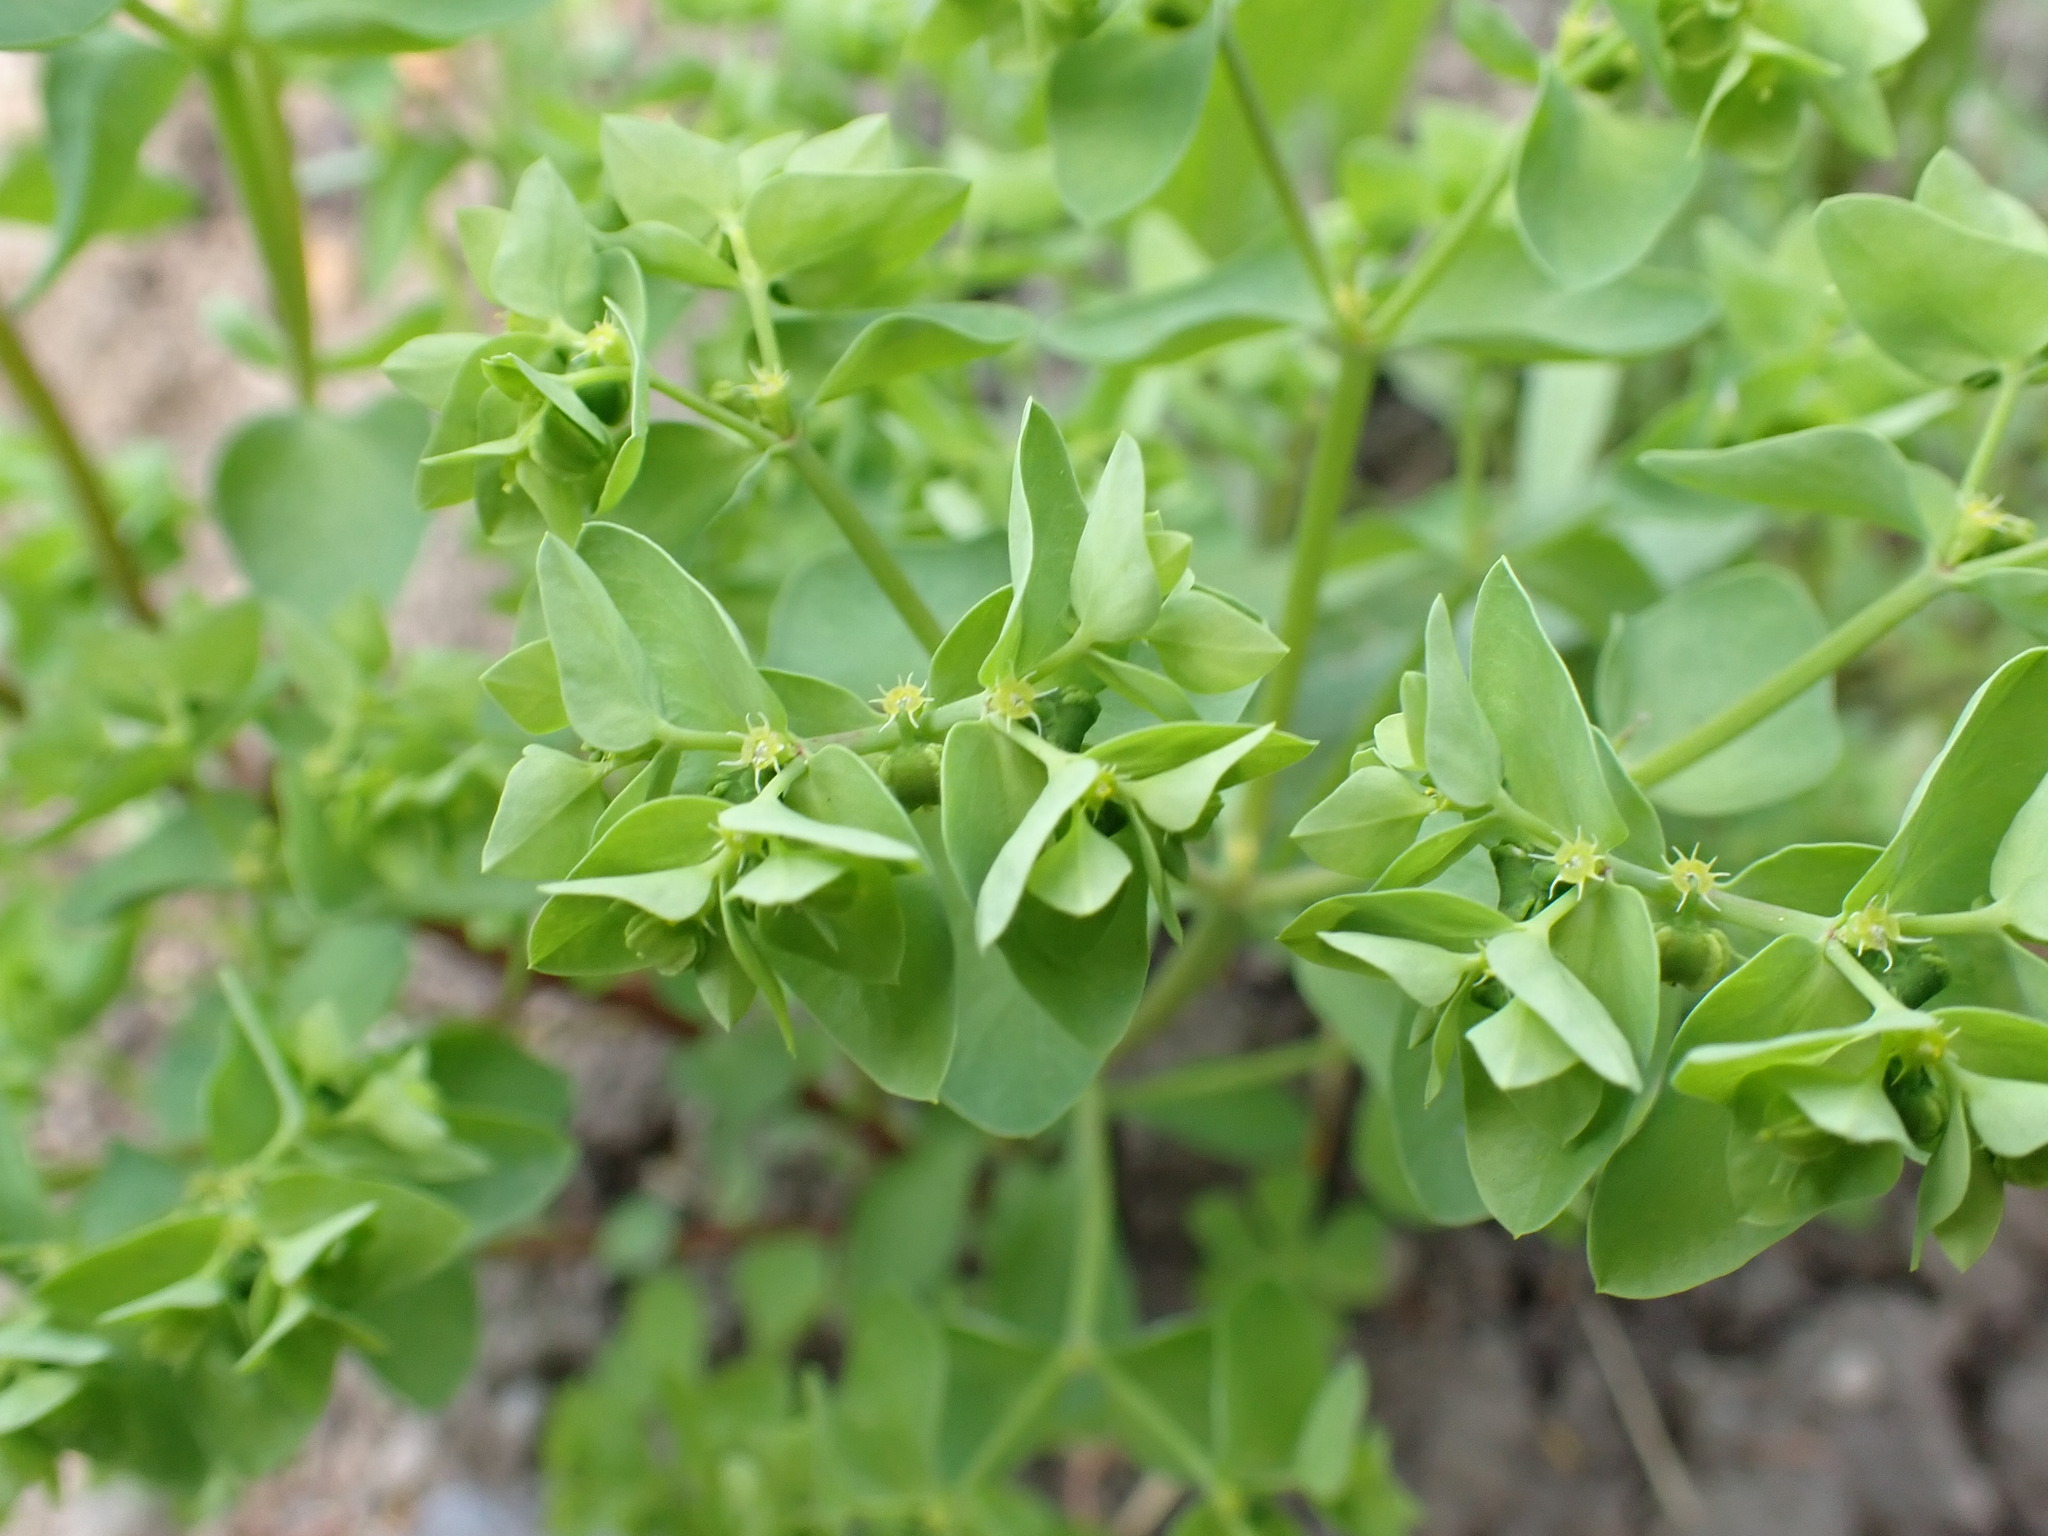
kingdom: Plantae
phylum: Tracheophyta
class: Magnoliopsida
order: Malpighiales
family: Euphorbiaceae
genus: Euphorbia
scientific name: Euphorbia peplus
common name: Petty spurge
